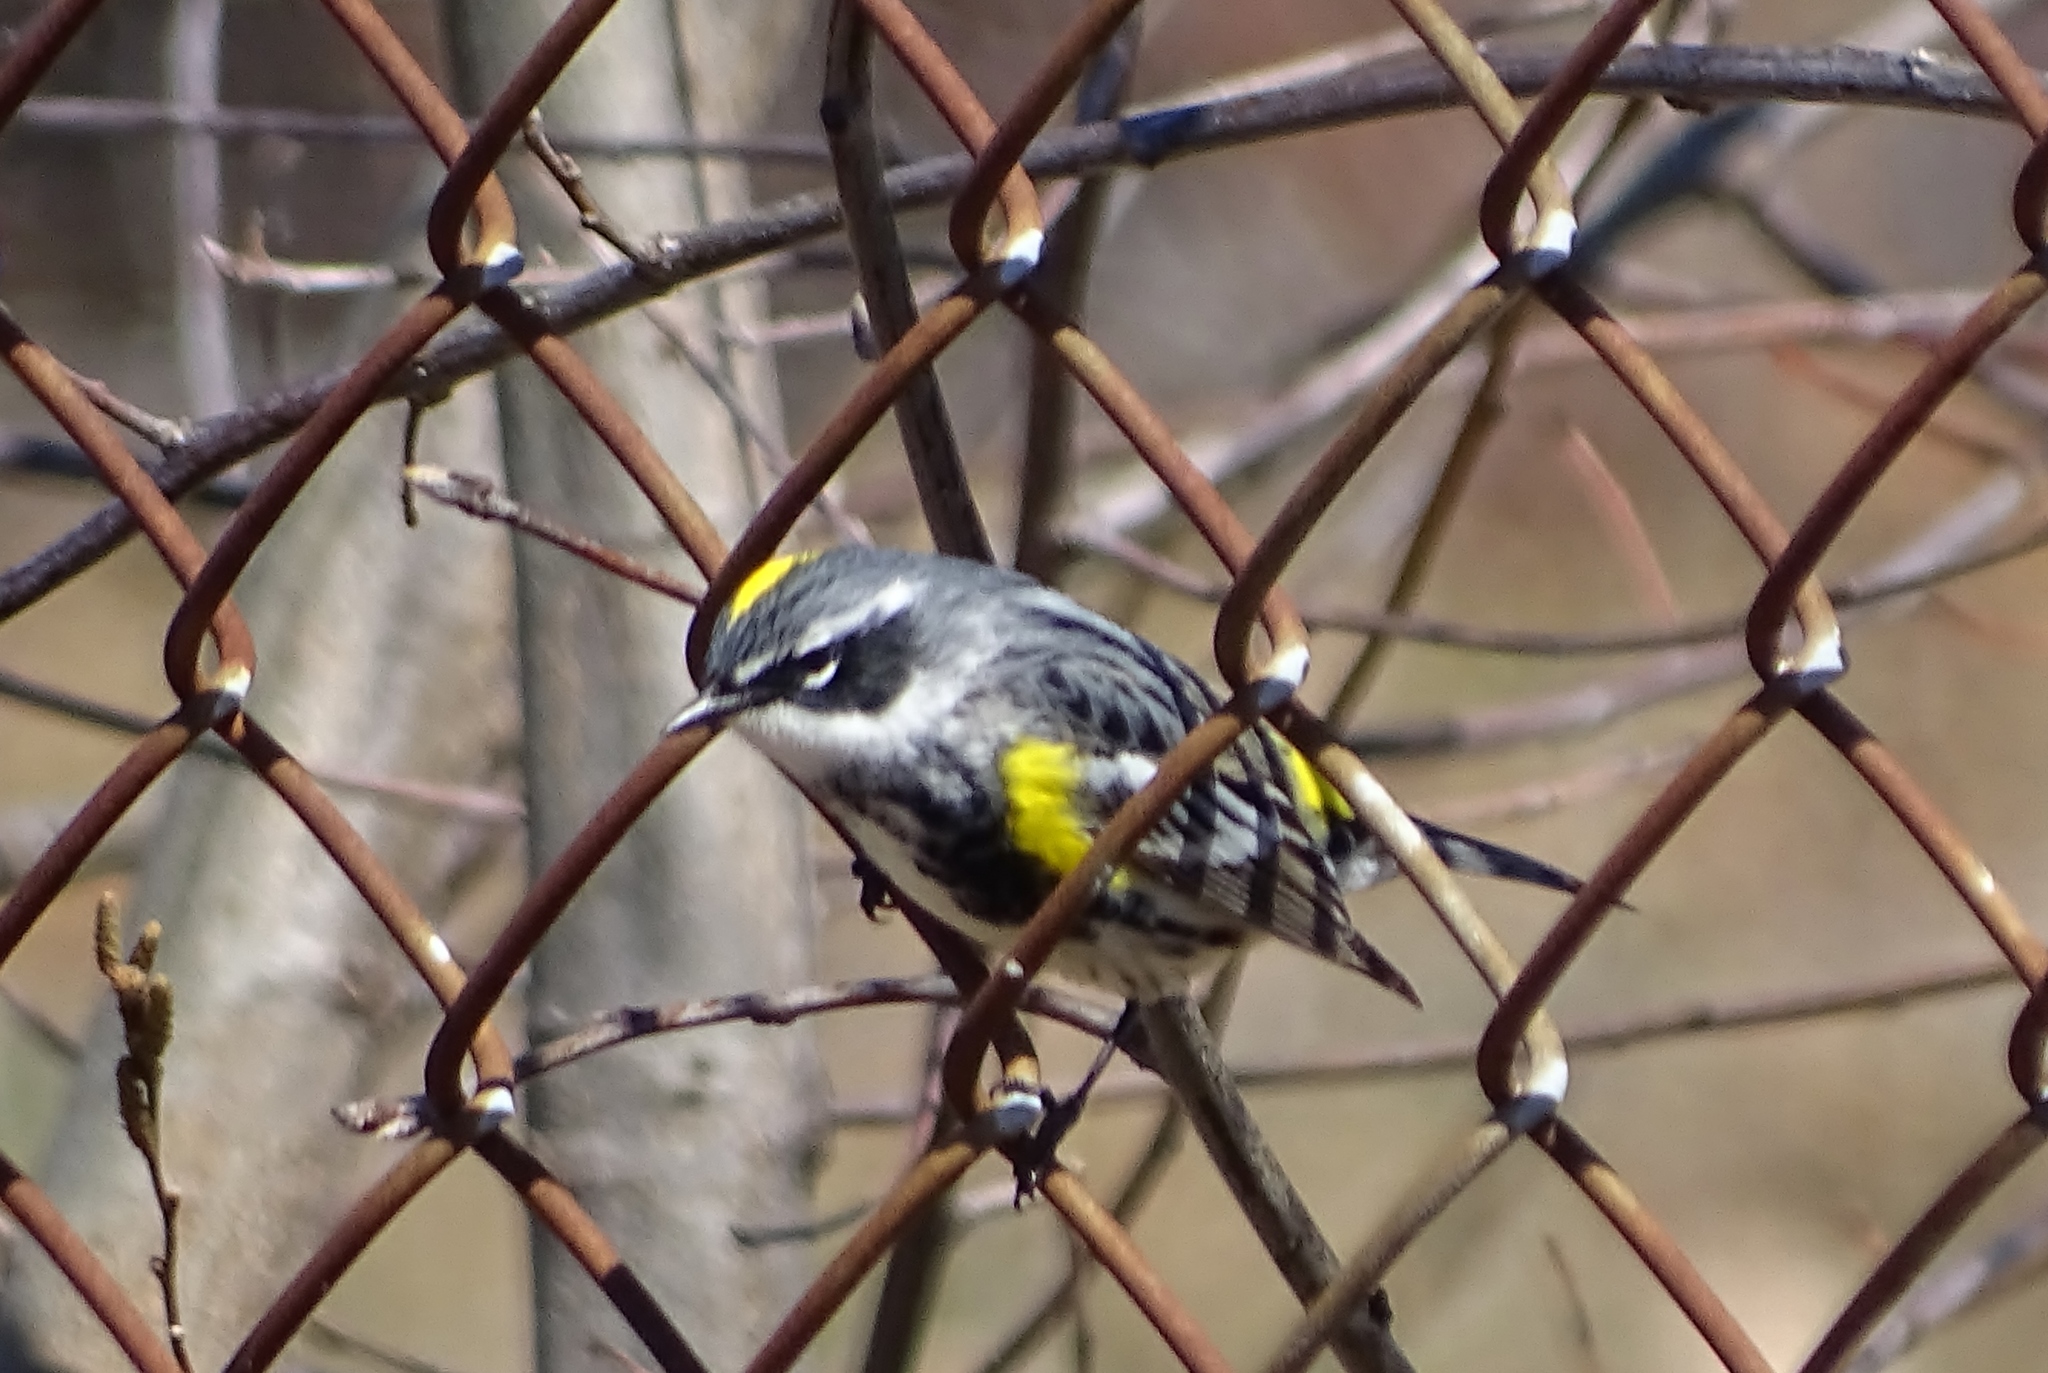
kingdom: Animalia
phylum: Chordata
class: Aves
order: Passeriformes
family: Parulidae
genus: Setophaga
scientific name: Setophaga coronata
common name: Myrtle warbler
